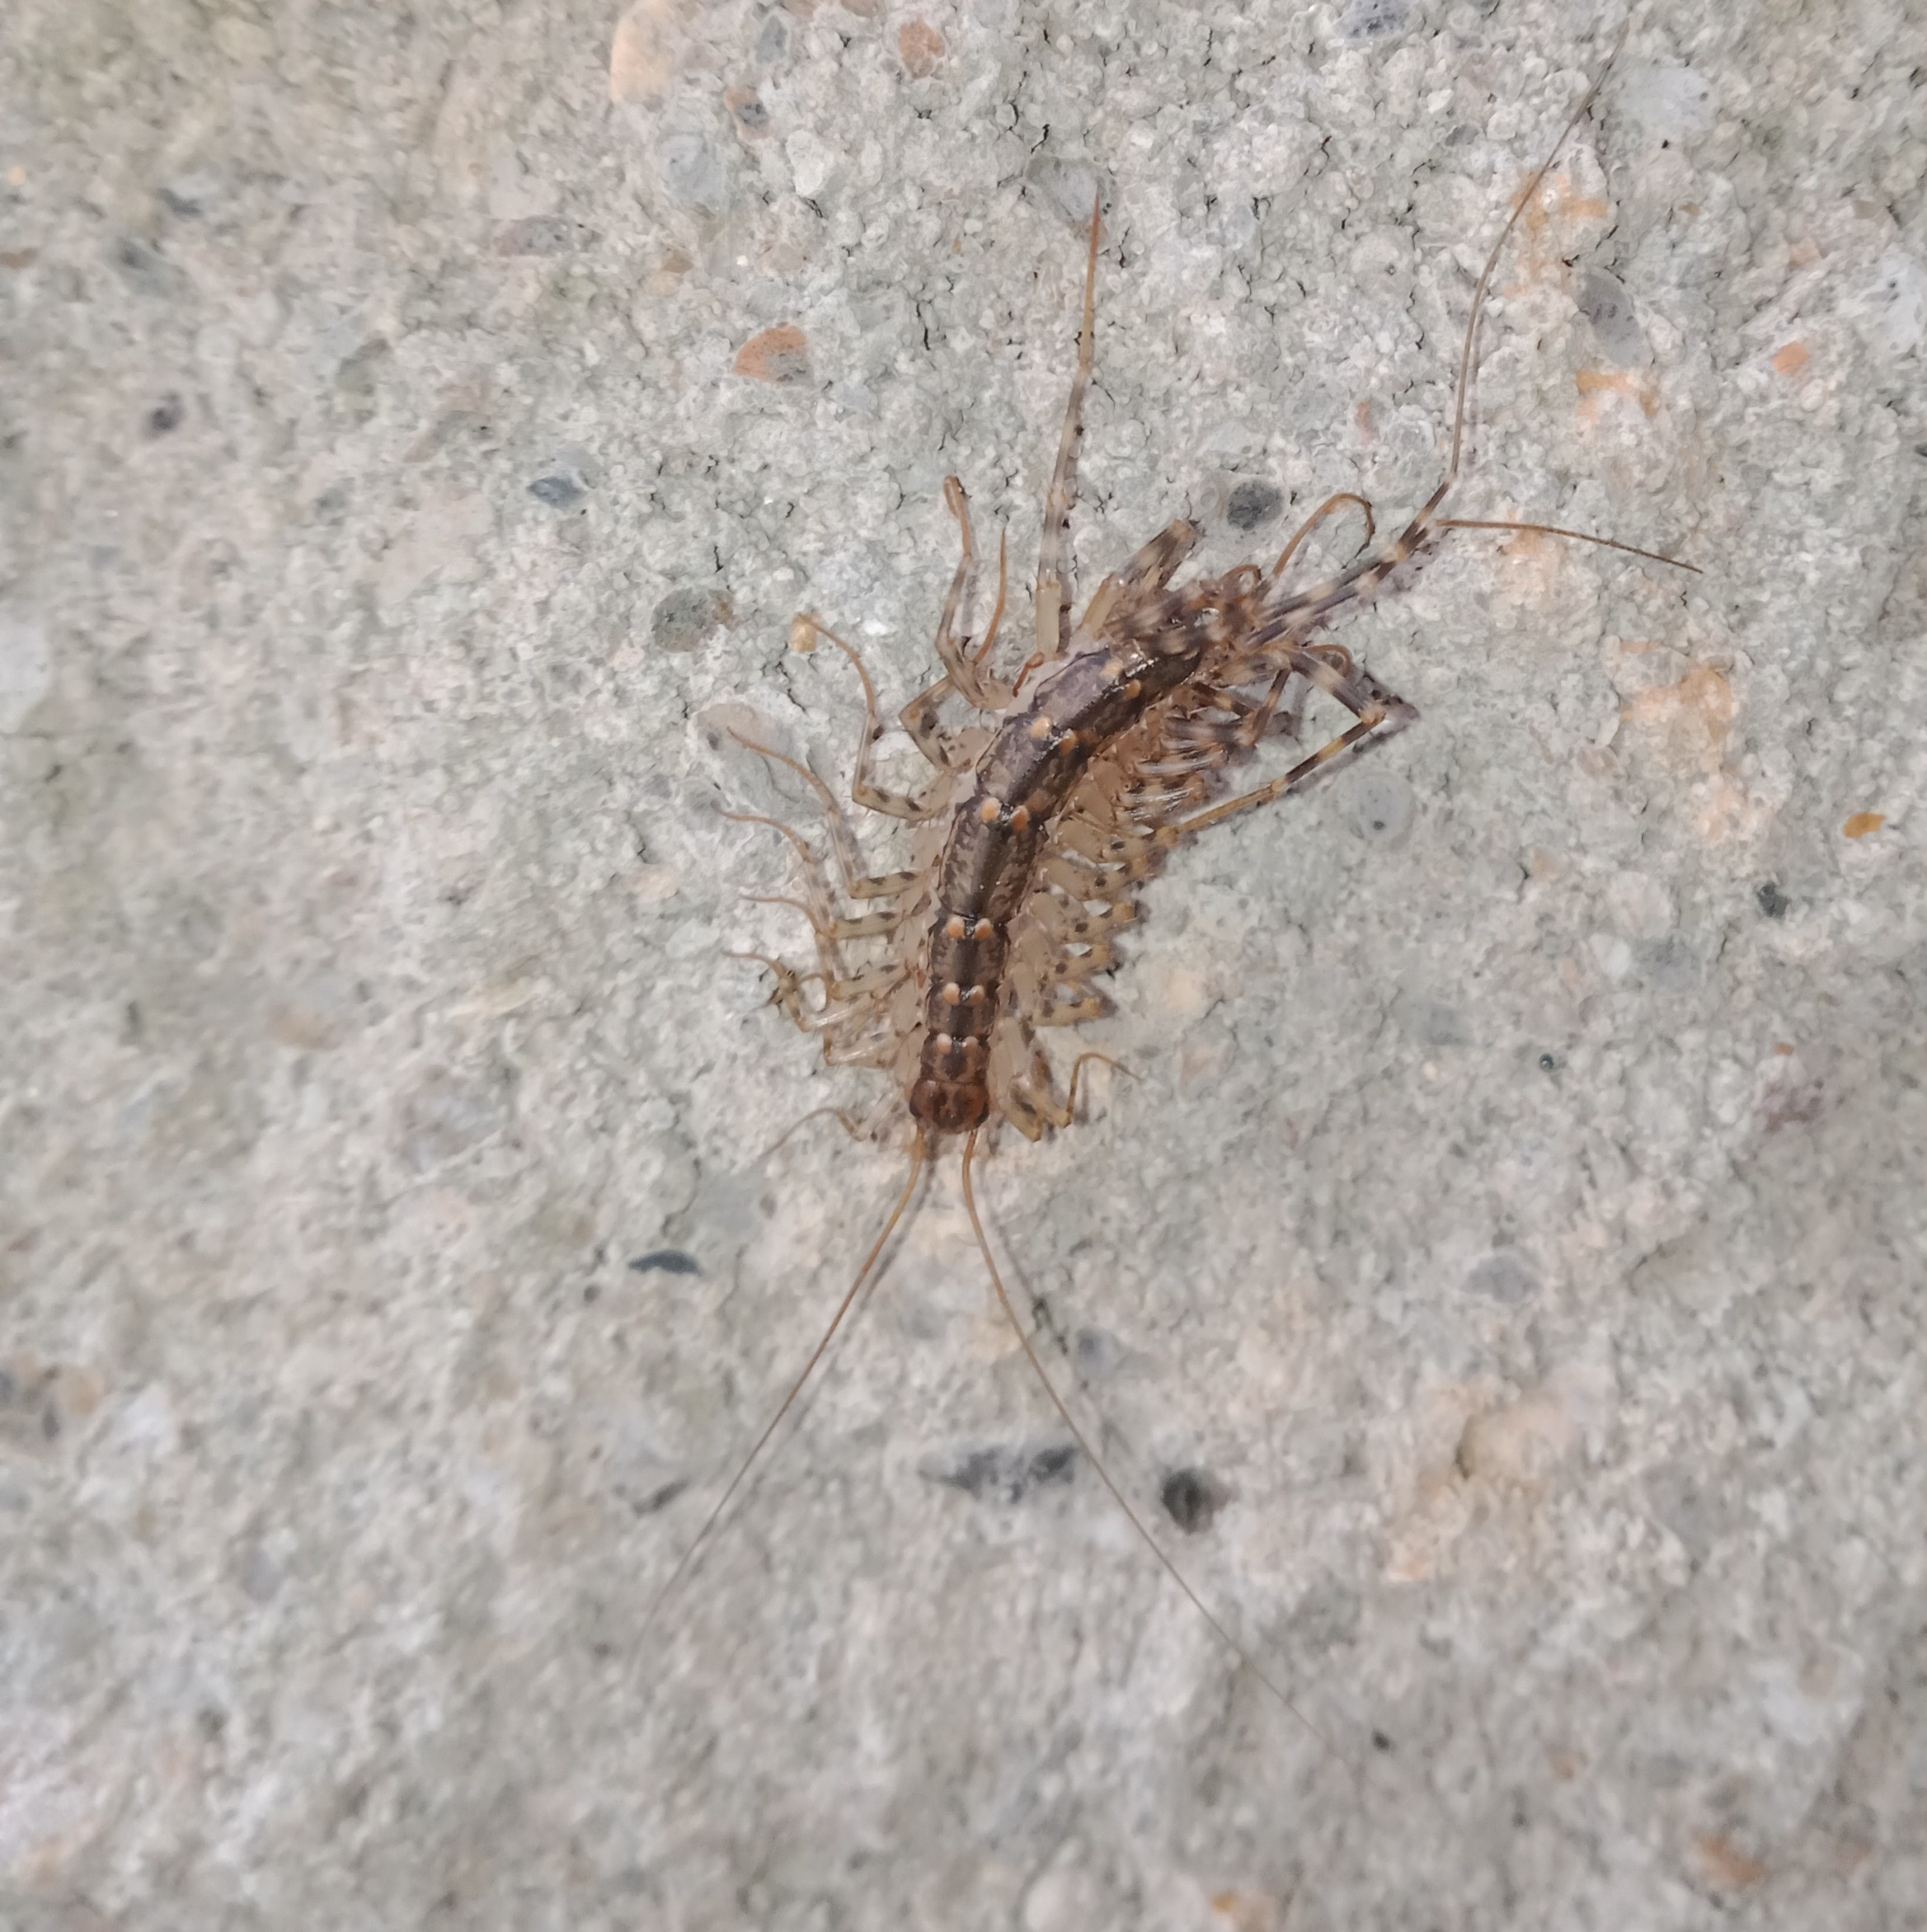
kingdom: Animalia
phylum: Arthropoda
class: Chilopoda
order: Scutigeromorpha
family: Scutigeridae
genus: Thereuonema
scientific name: Thereuonema tuberculata
